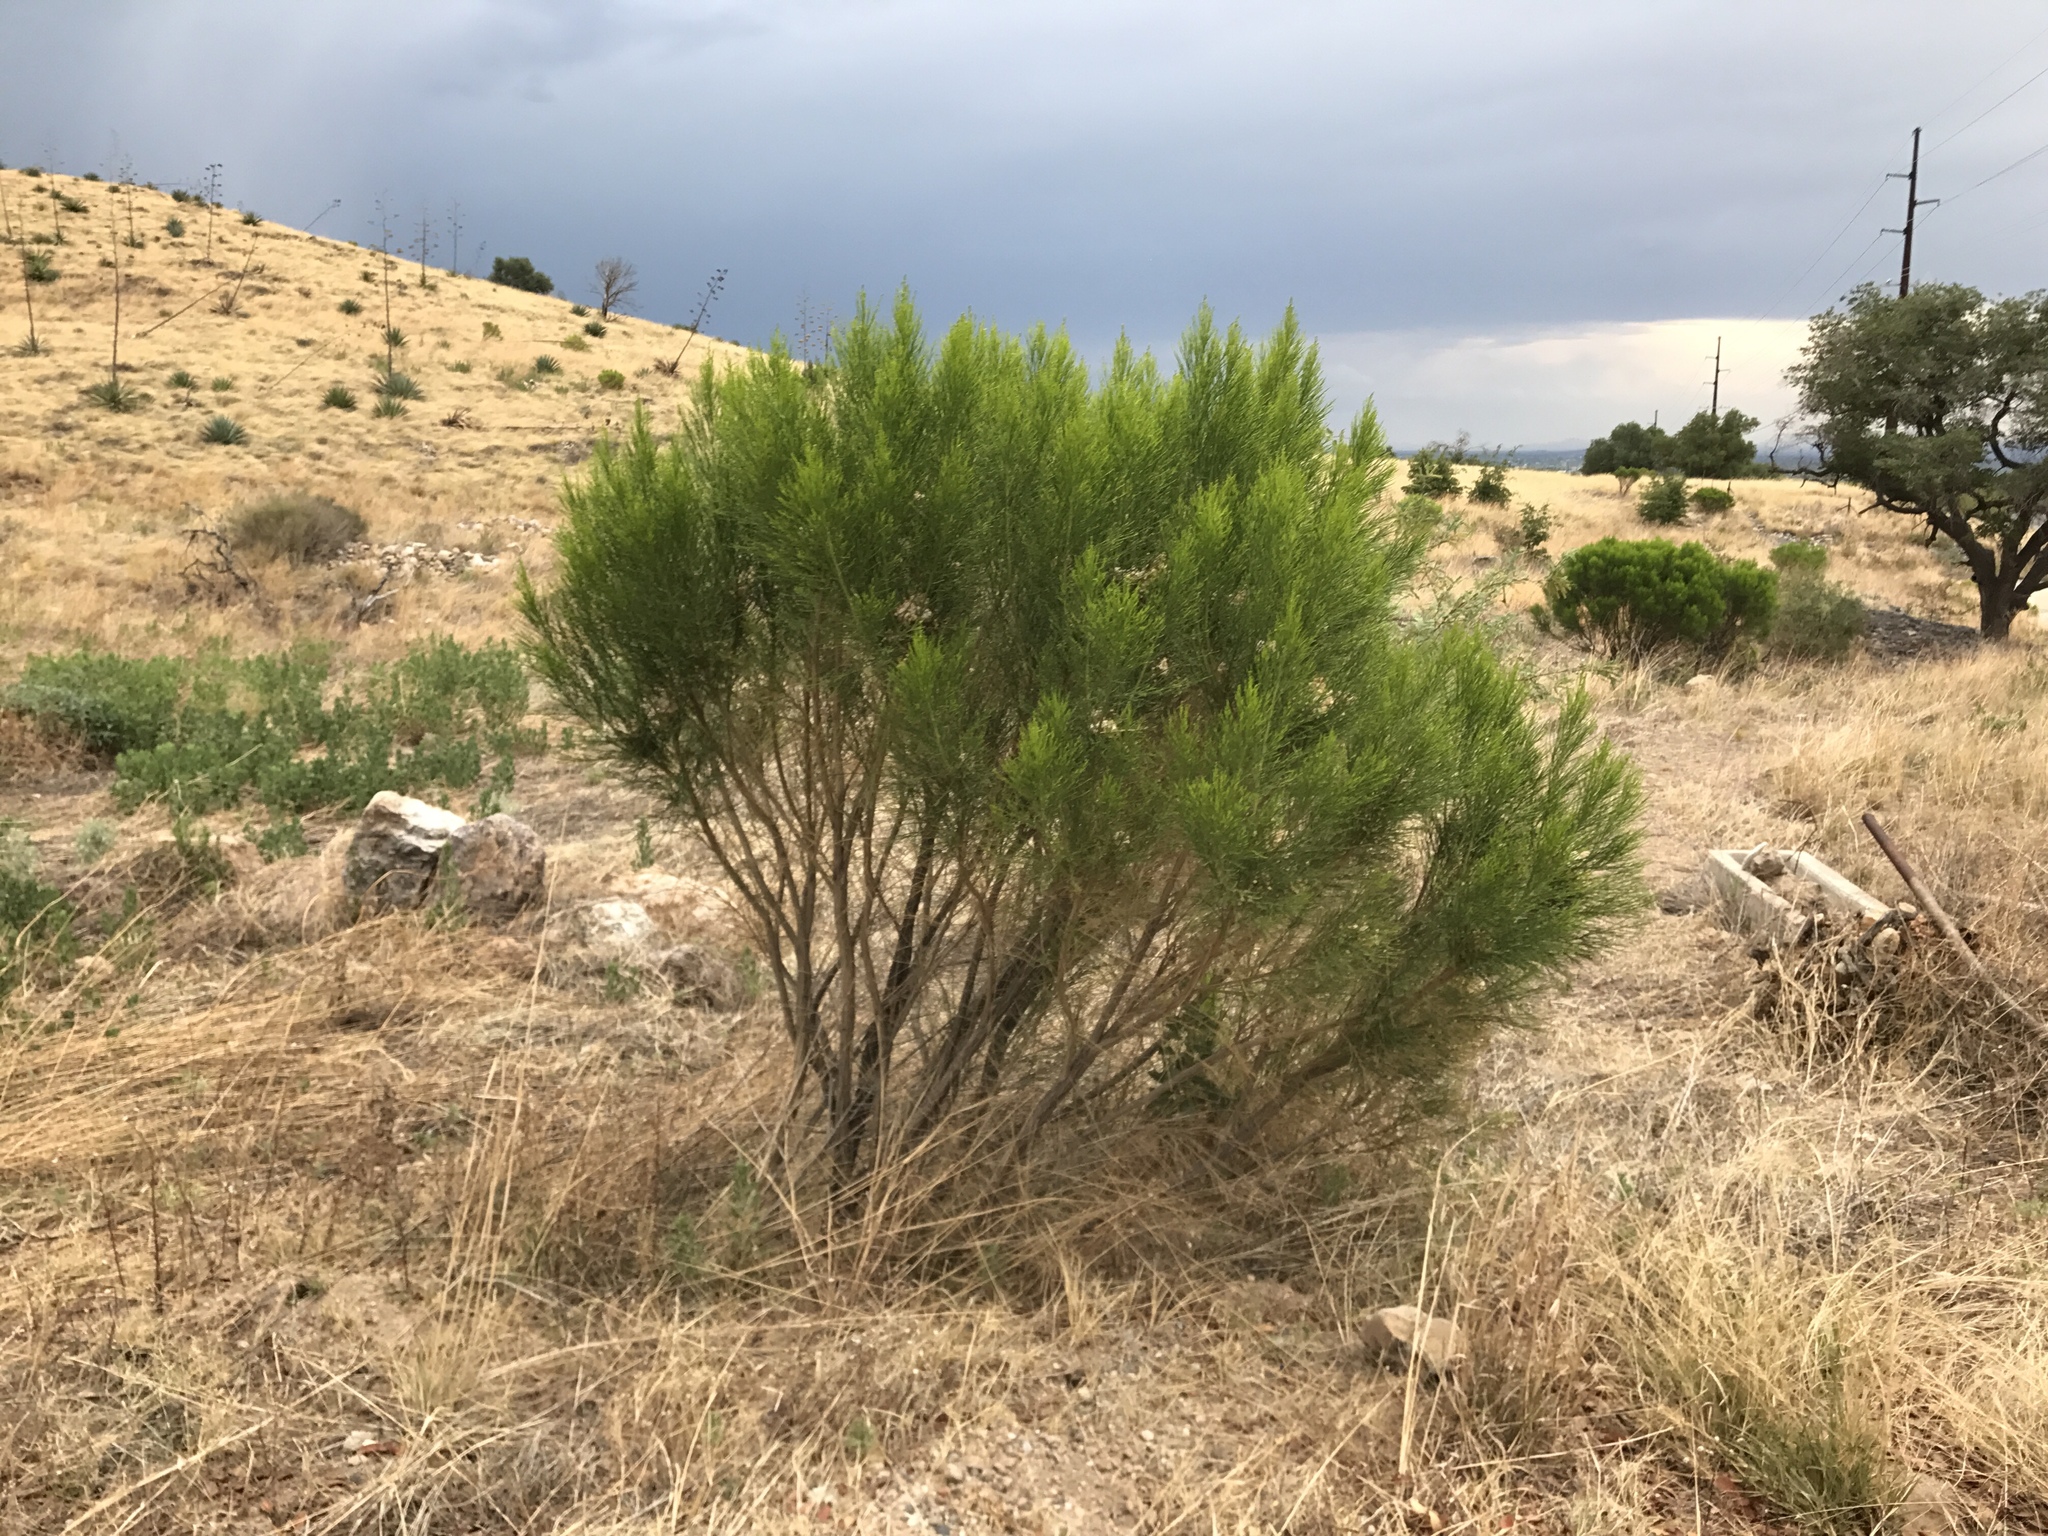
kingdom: Plantae
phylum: Tracheophyta
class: Magnoliopsida
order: Asterales
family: Asteraceae
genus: Baccharis
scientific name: Baccharis sarothroides
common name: Desert-broom
